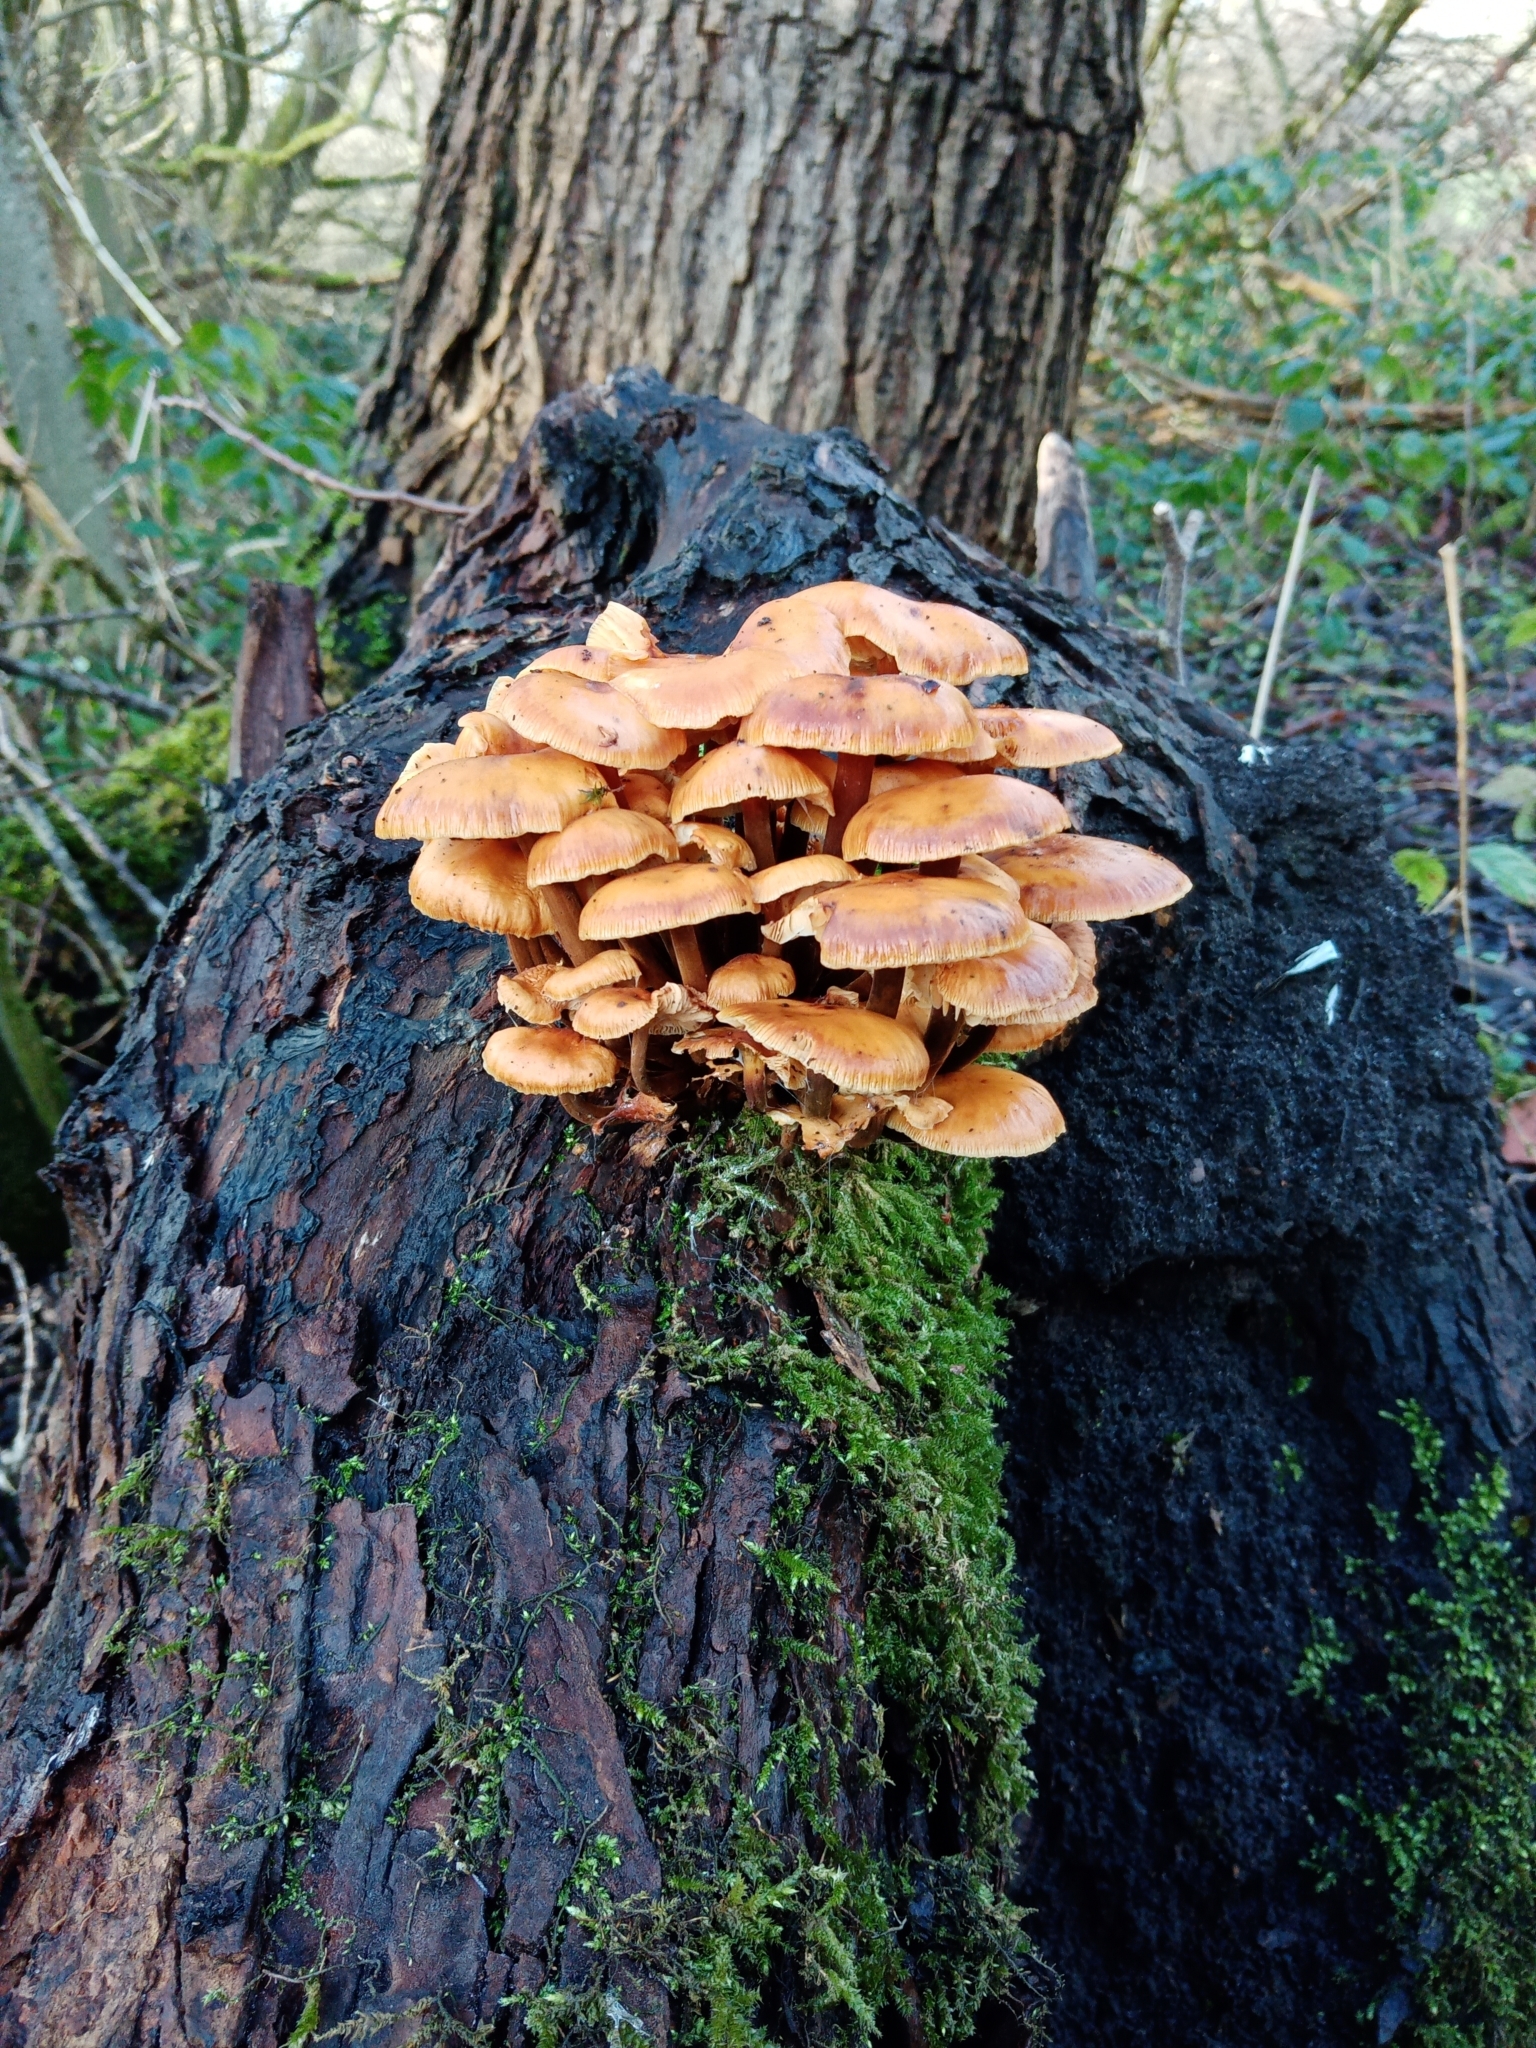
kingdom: Fungi
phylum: Basidiomycota
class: Agaricomycetes
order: Agaricales
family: Physalacriaceae
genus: Flammulina
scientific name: Flammulina
